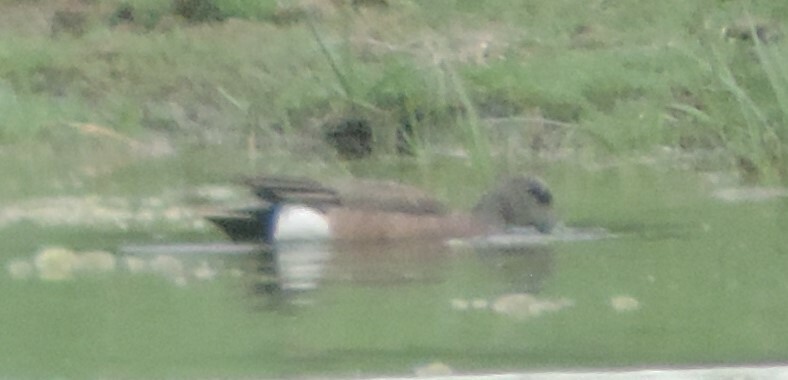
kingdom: Animalia
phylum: Chordata
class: Aves
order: Anseriformes
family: Anatidae
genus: Mareca
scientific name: Mareca americana
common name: American wigeon
